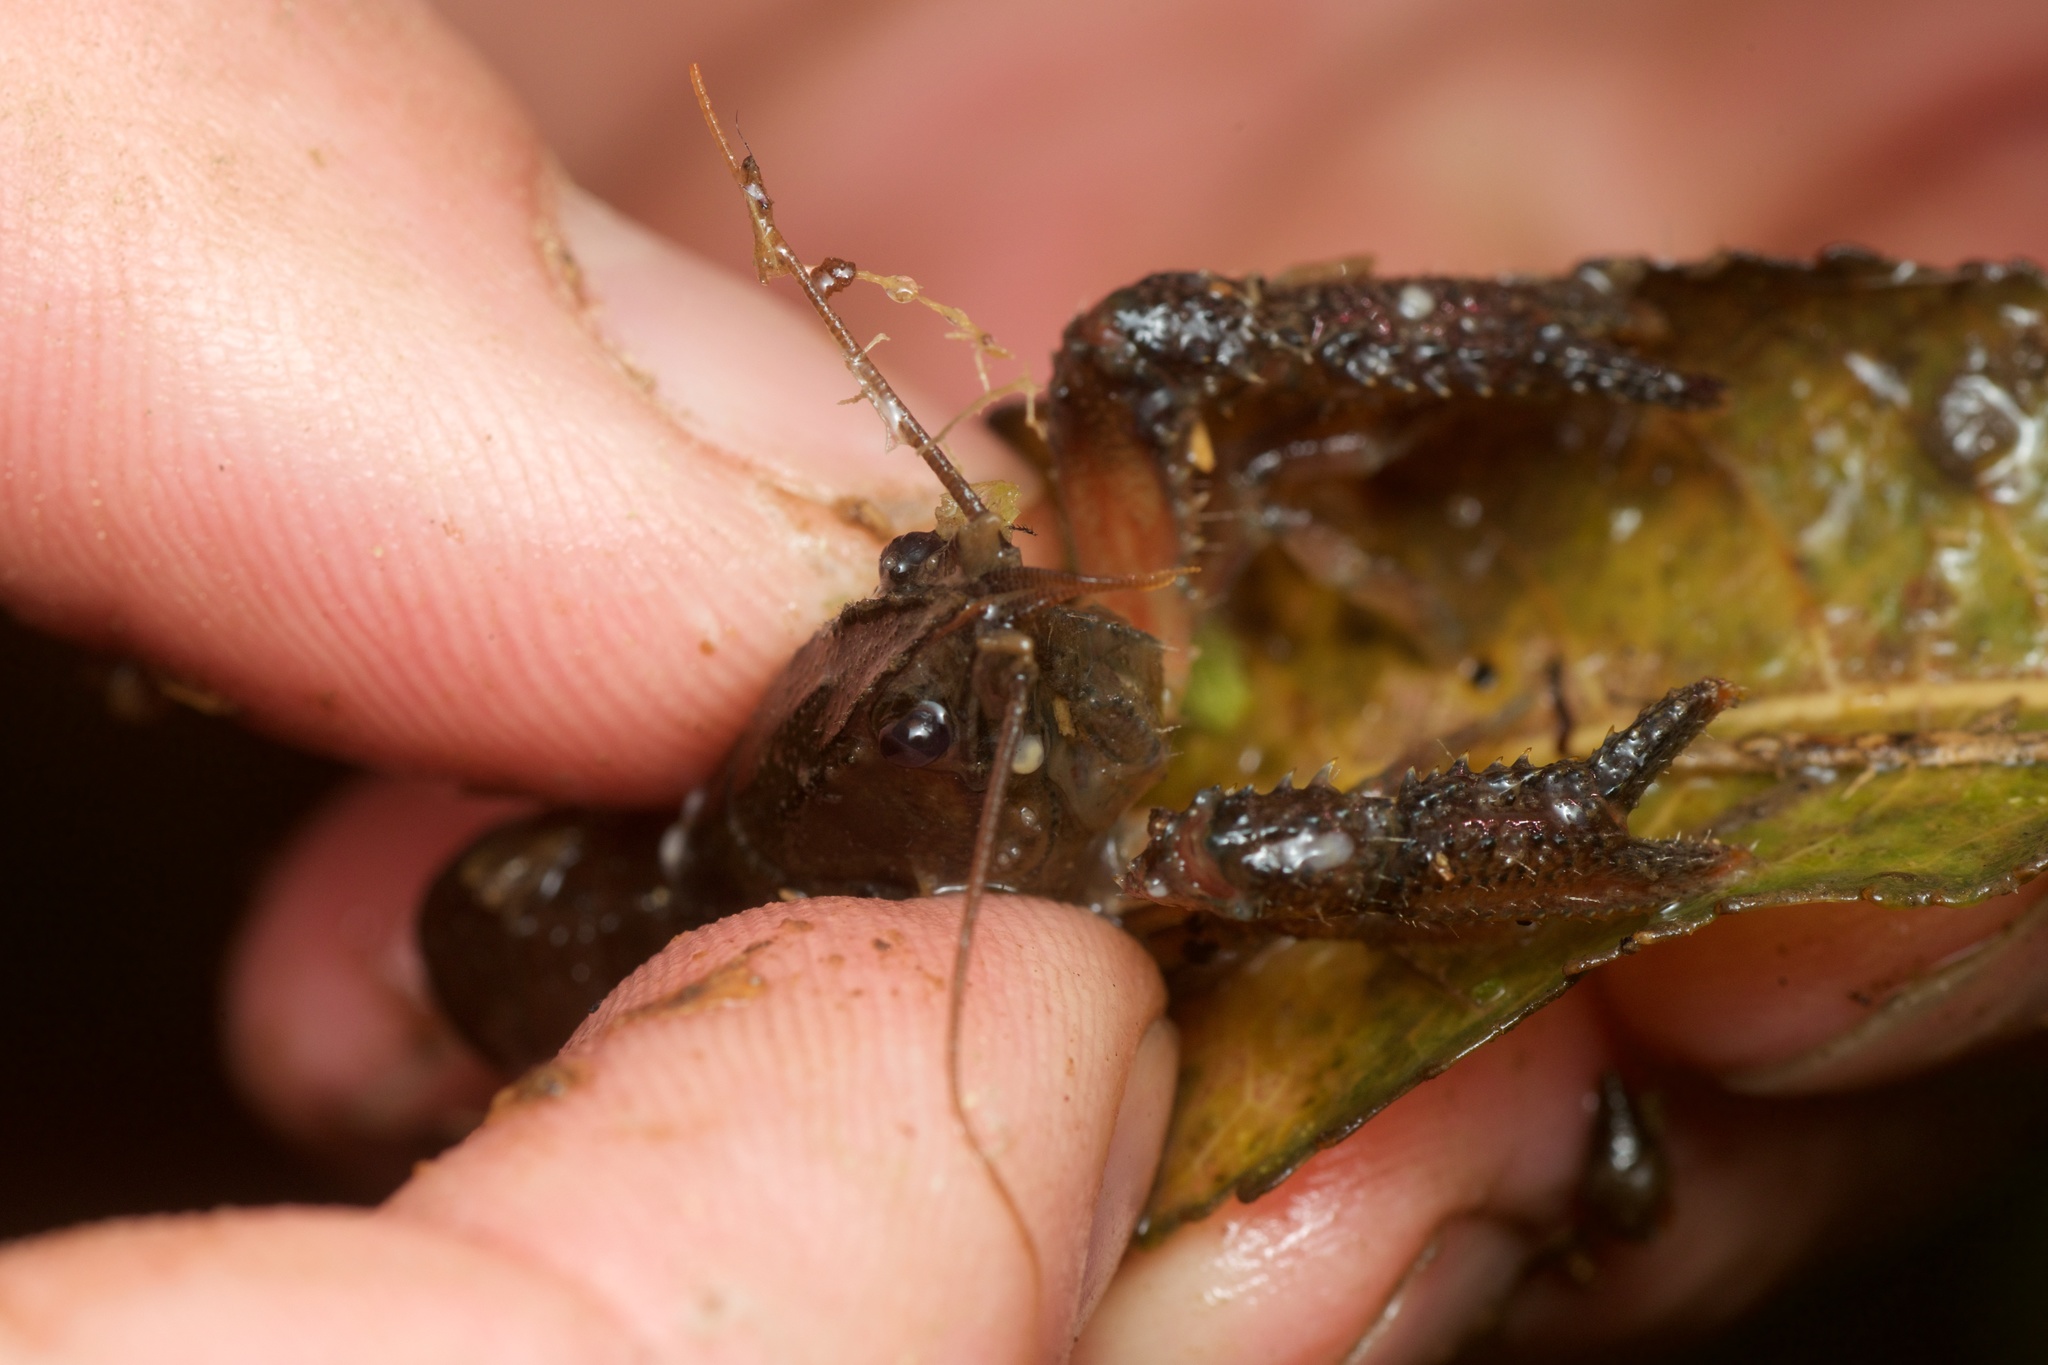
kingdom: Animalia
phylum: Arthropoda
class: Malacostraca
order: Decapoda
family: Parastacidae
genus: Paranephrops
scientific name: Paranephrops planifrons
